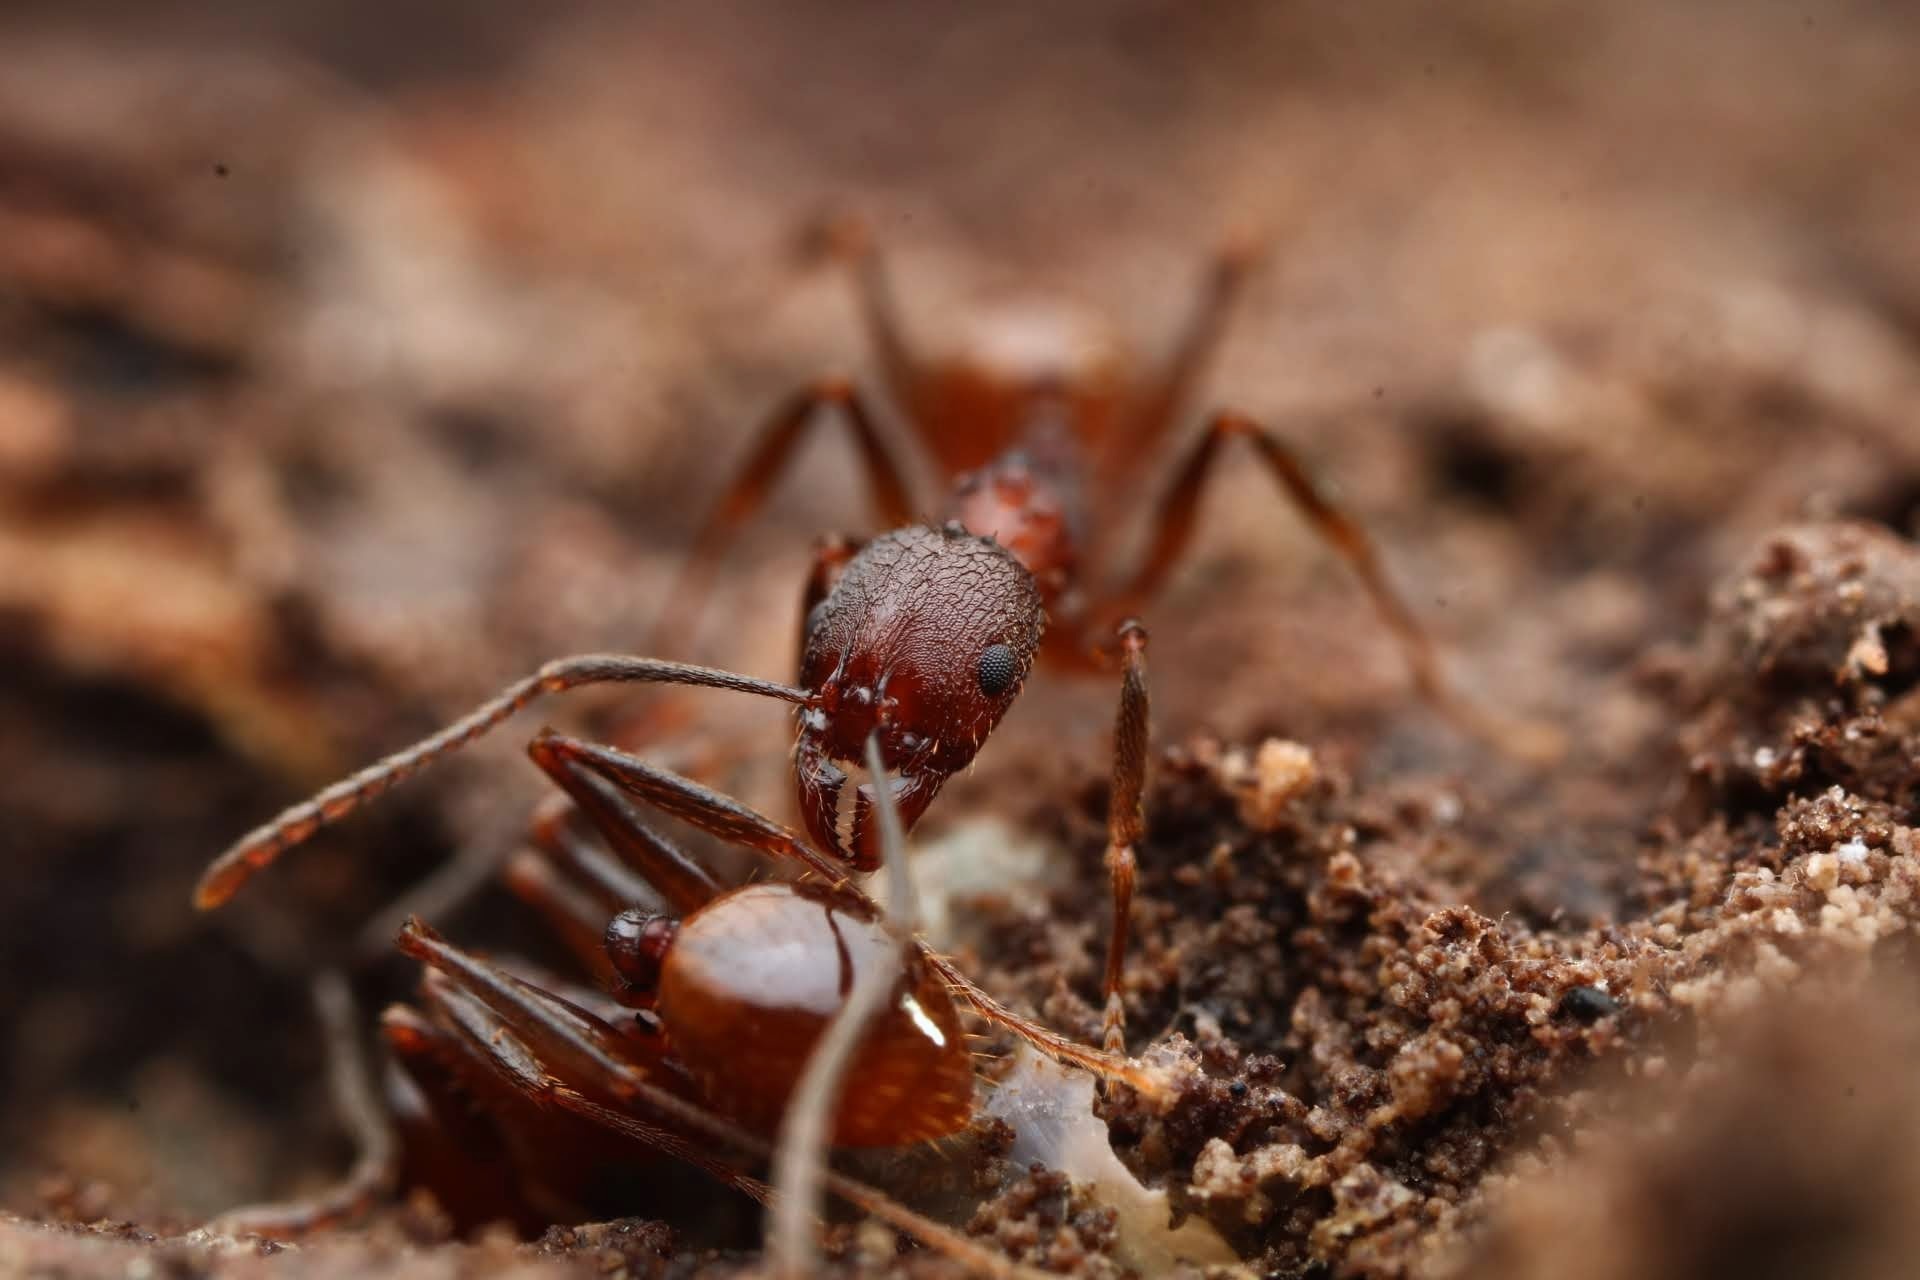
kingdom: Animalia
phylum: Arthropoda
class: Insecta
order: Hymenoptera
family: Formicidae
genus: Aphaenogaster
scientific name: Aphaenogaster fulva
